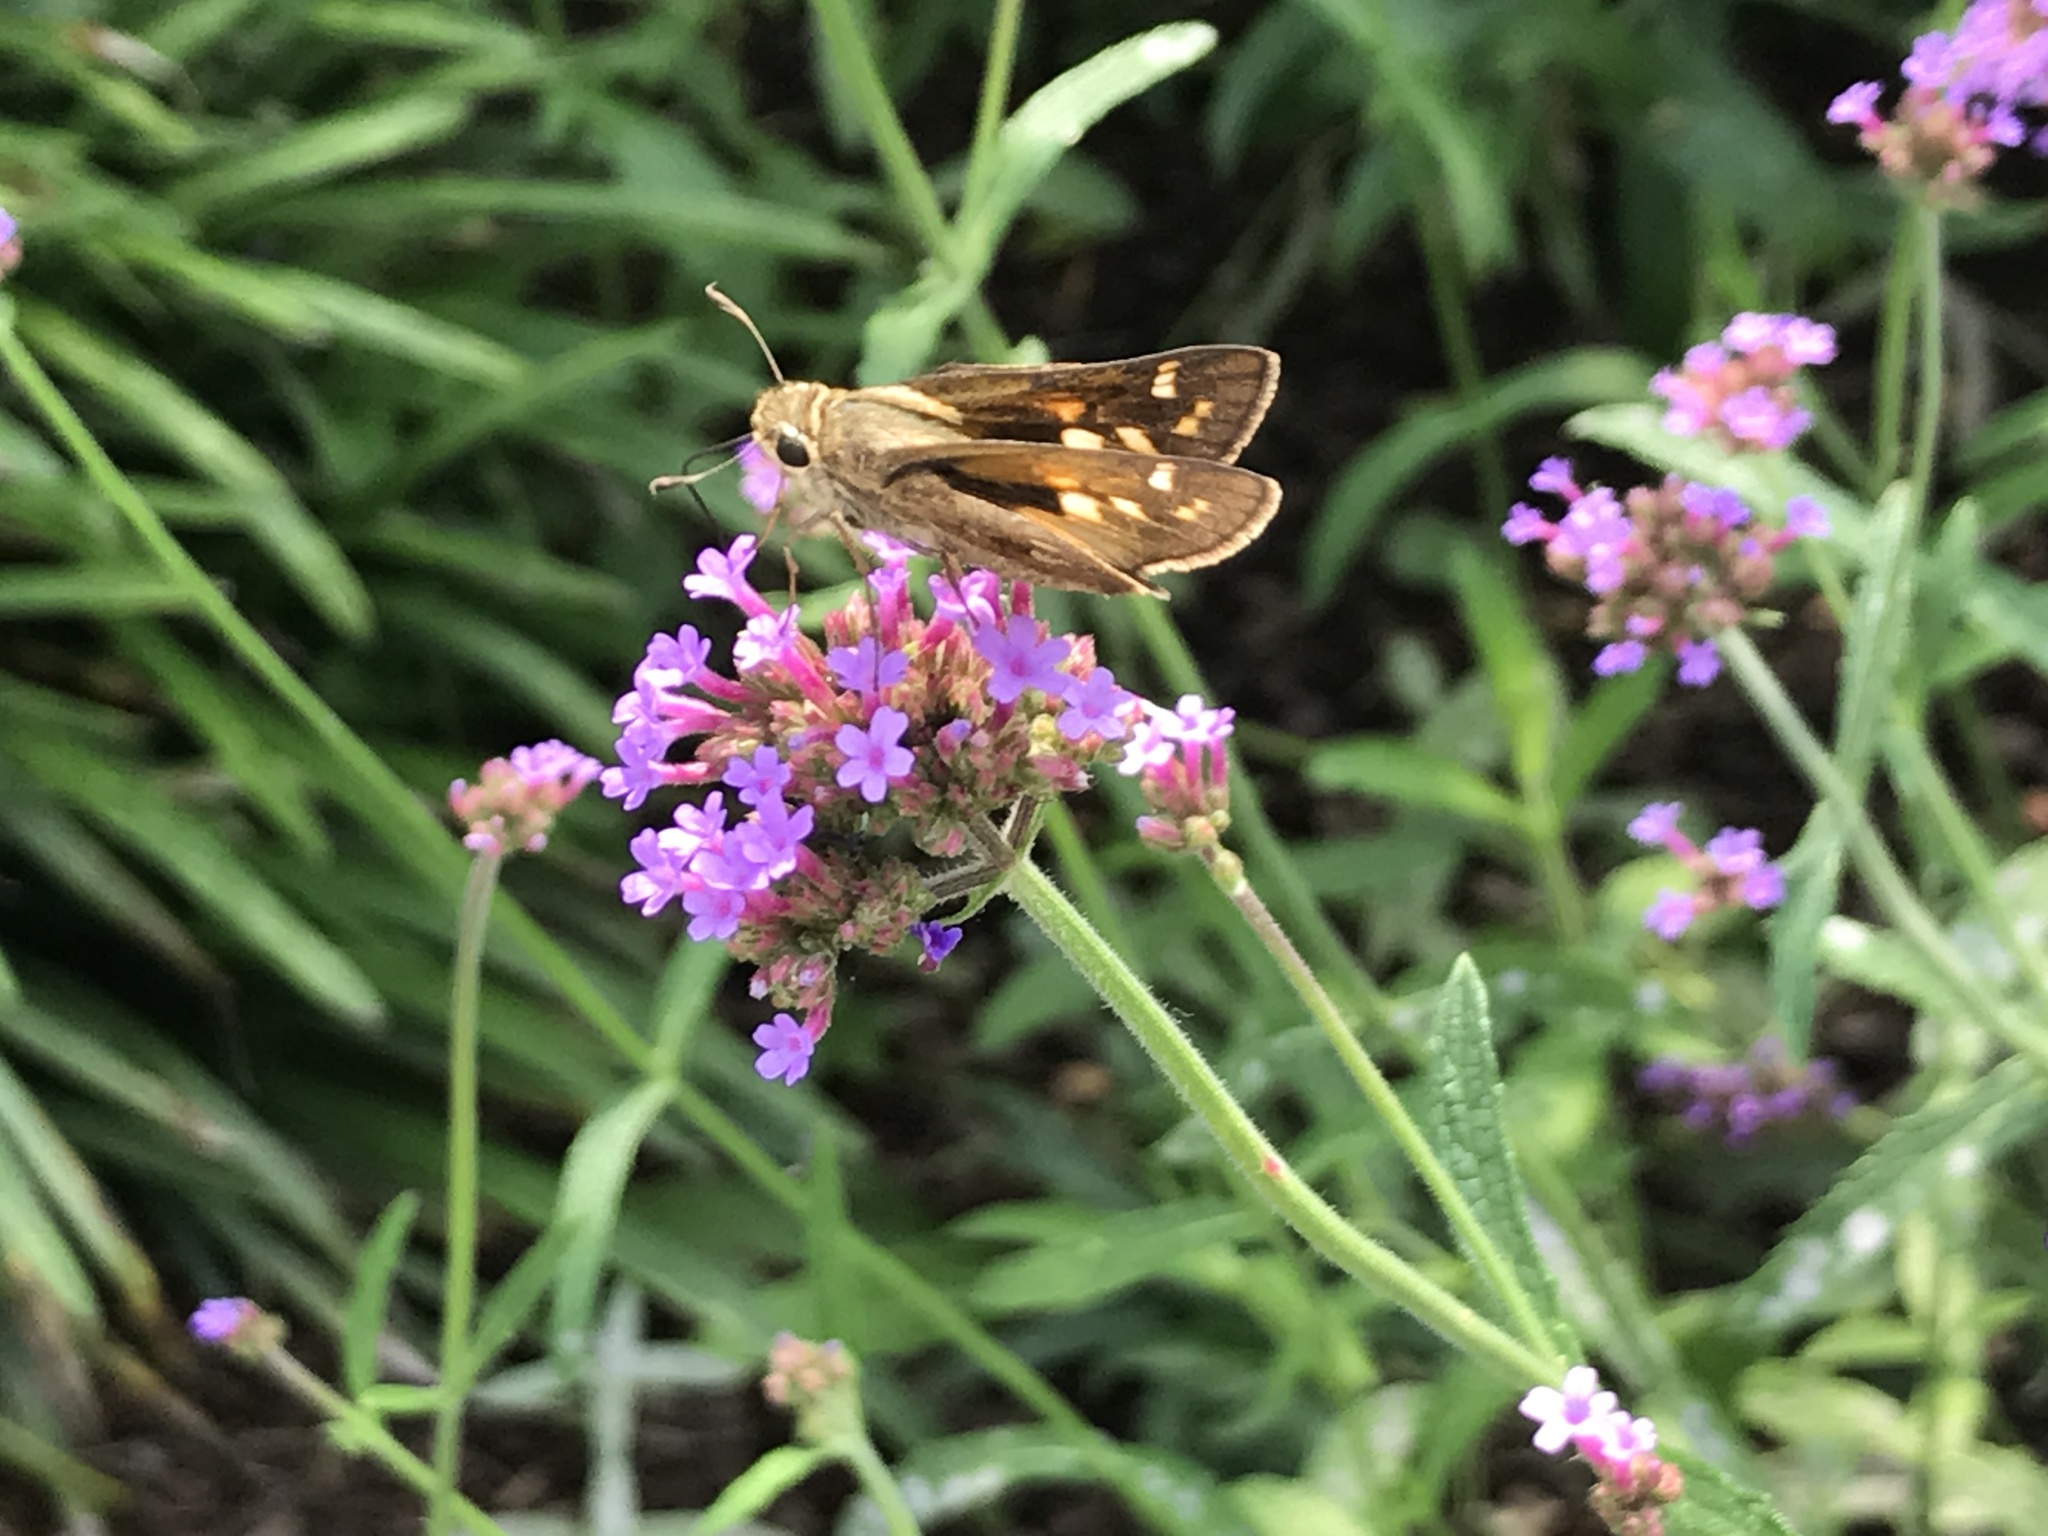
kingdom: Animalia
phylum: Arthropoda
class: Insecta
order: Lepidoptera
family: Hesperiidae
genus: Atalopedes
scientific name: Atalopedes
